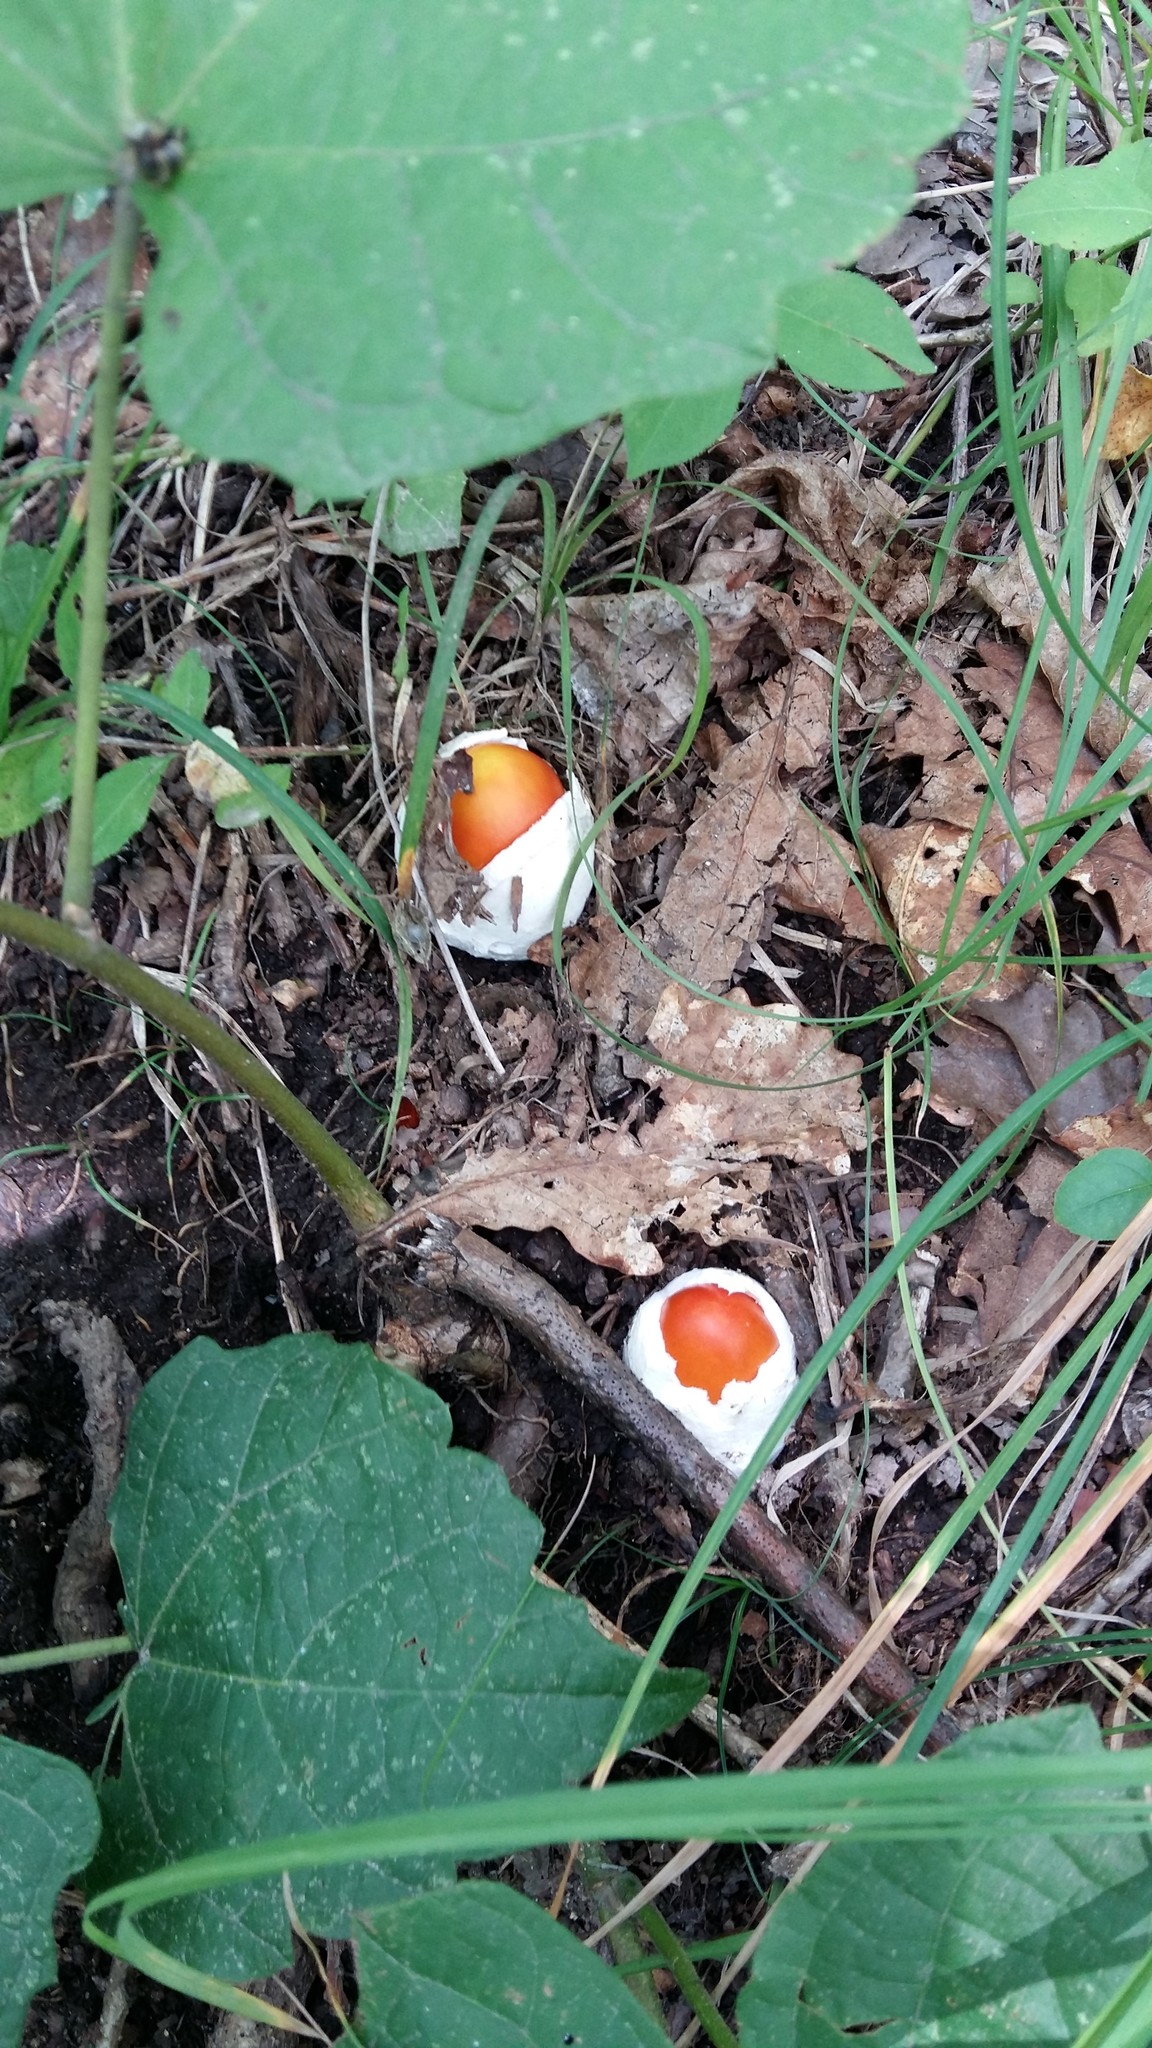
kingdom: Fungi
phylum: Basidiomycota
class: Agaricomycetes
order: Agaricales
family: Amanitaceae
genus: Amanita
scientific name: Amanita caesareoides
